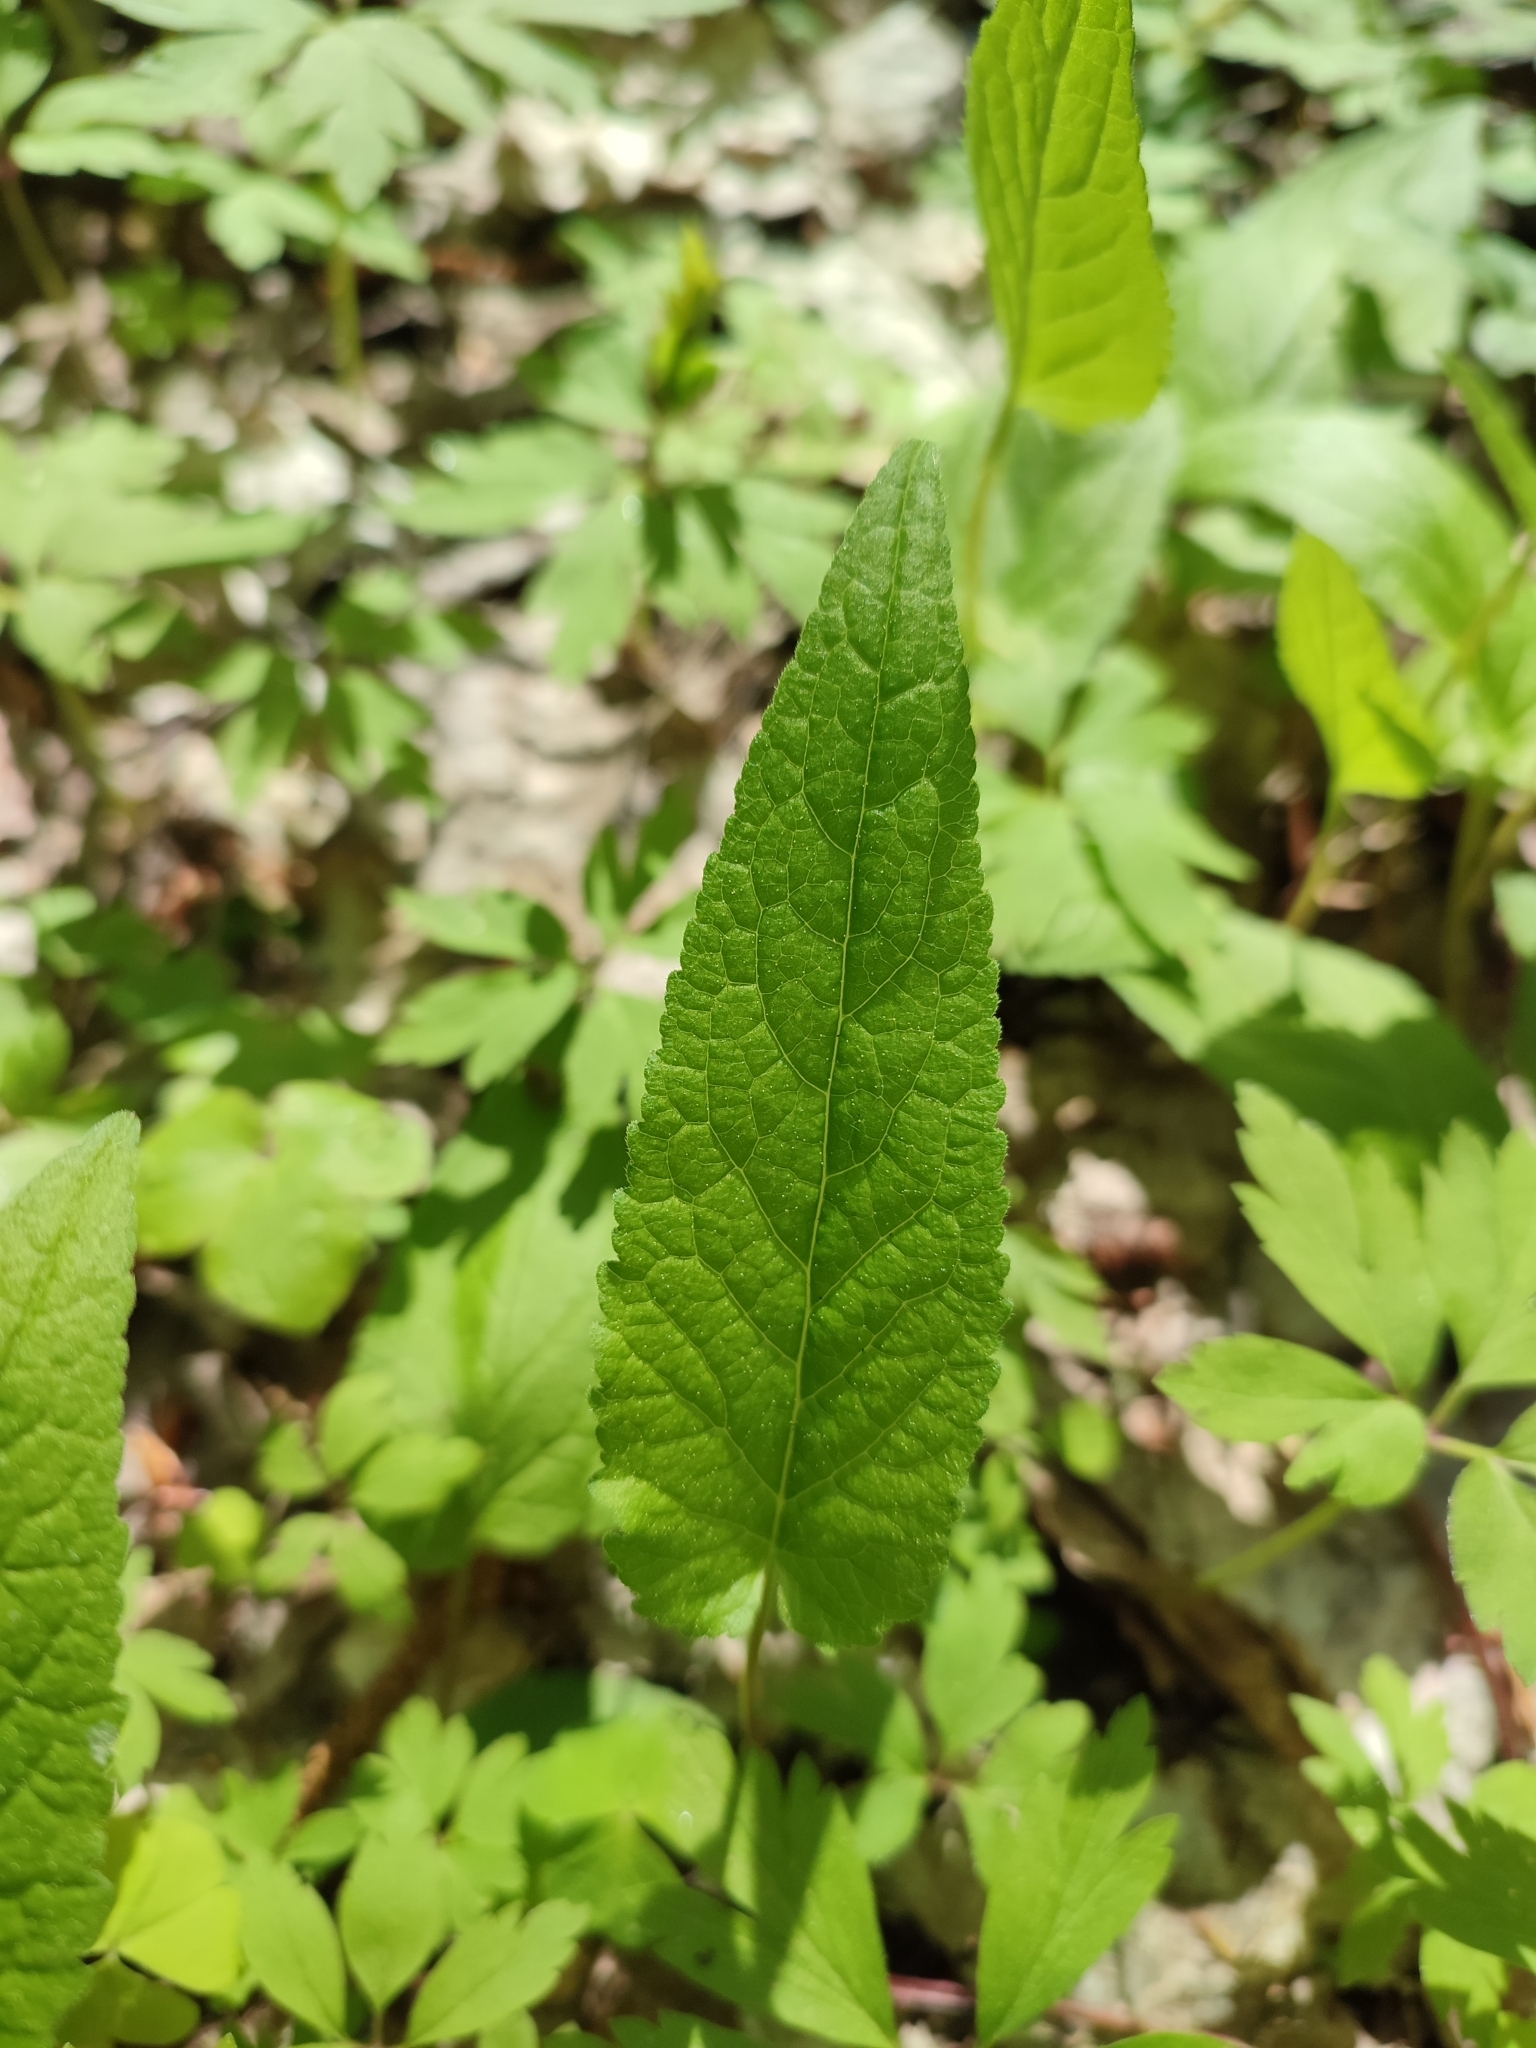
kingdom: Plantae
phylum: Tracheophyta
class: Magnoliopsida
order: Asterales
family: Campanulaceae
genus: Campanula
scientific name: Campanula rapunculoides
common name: Creeping bellflower
